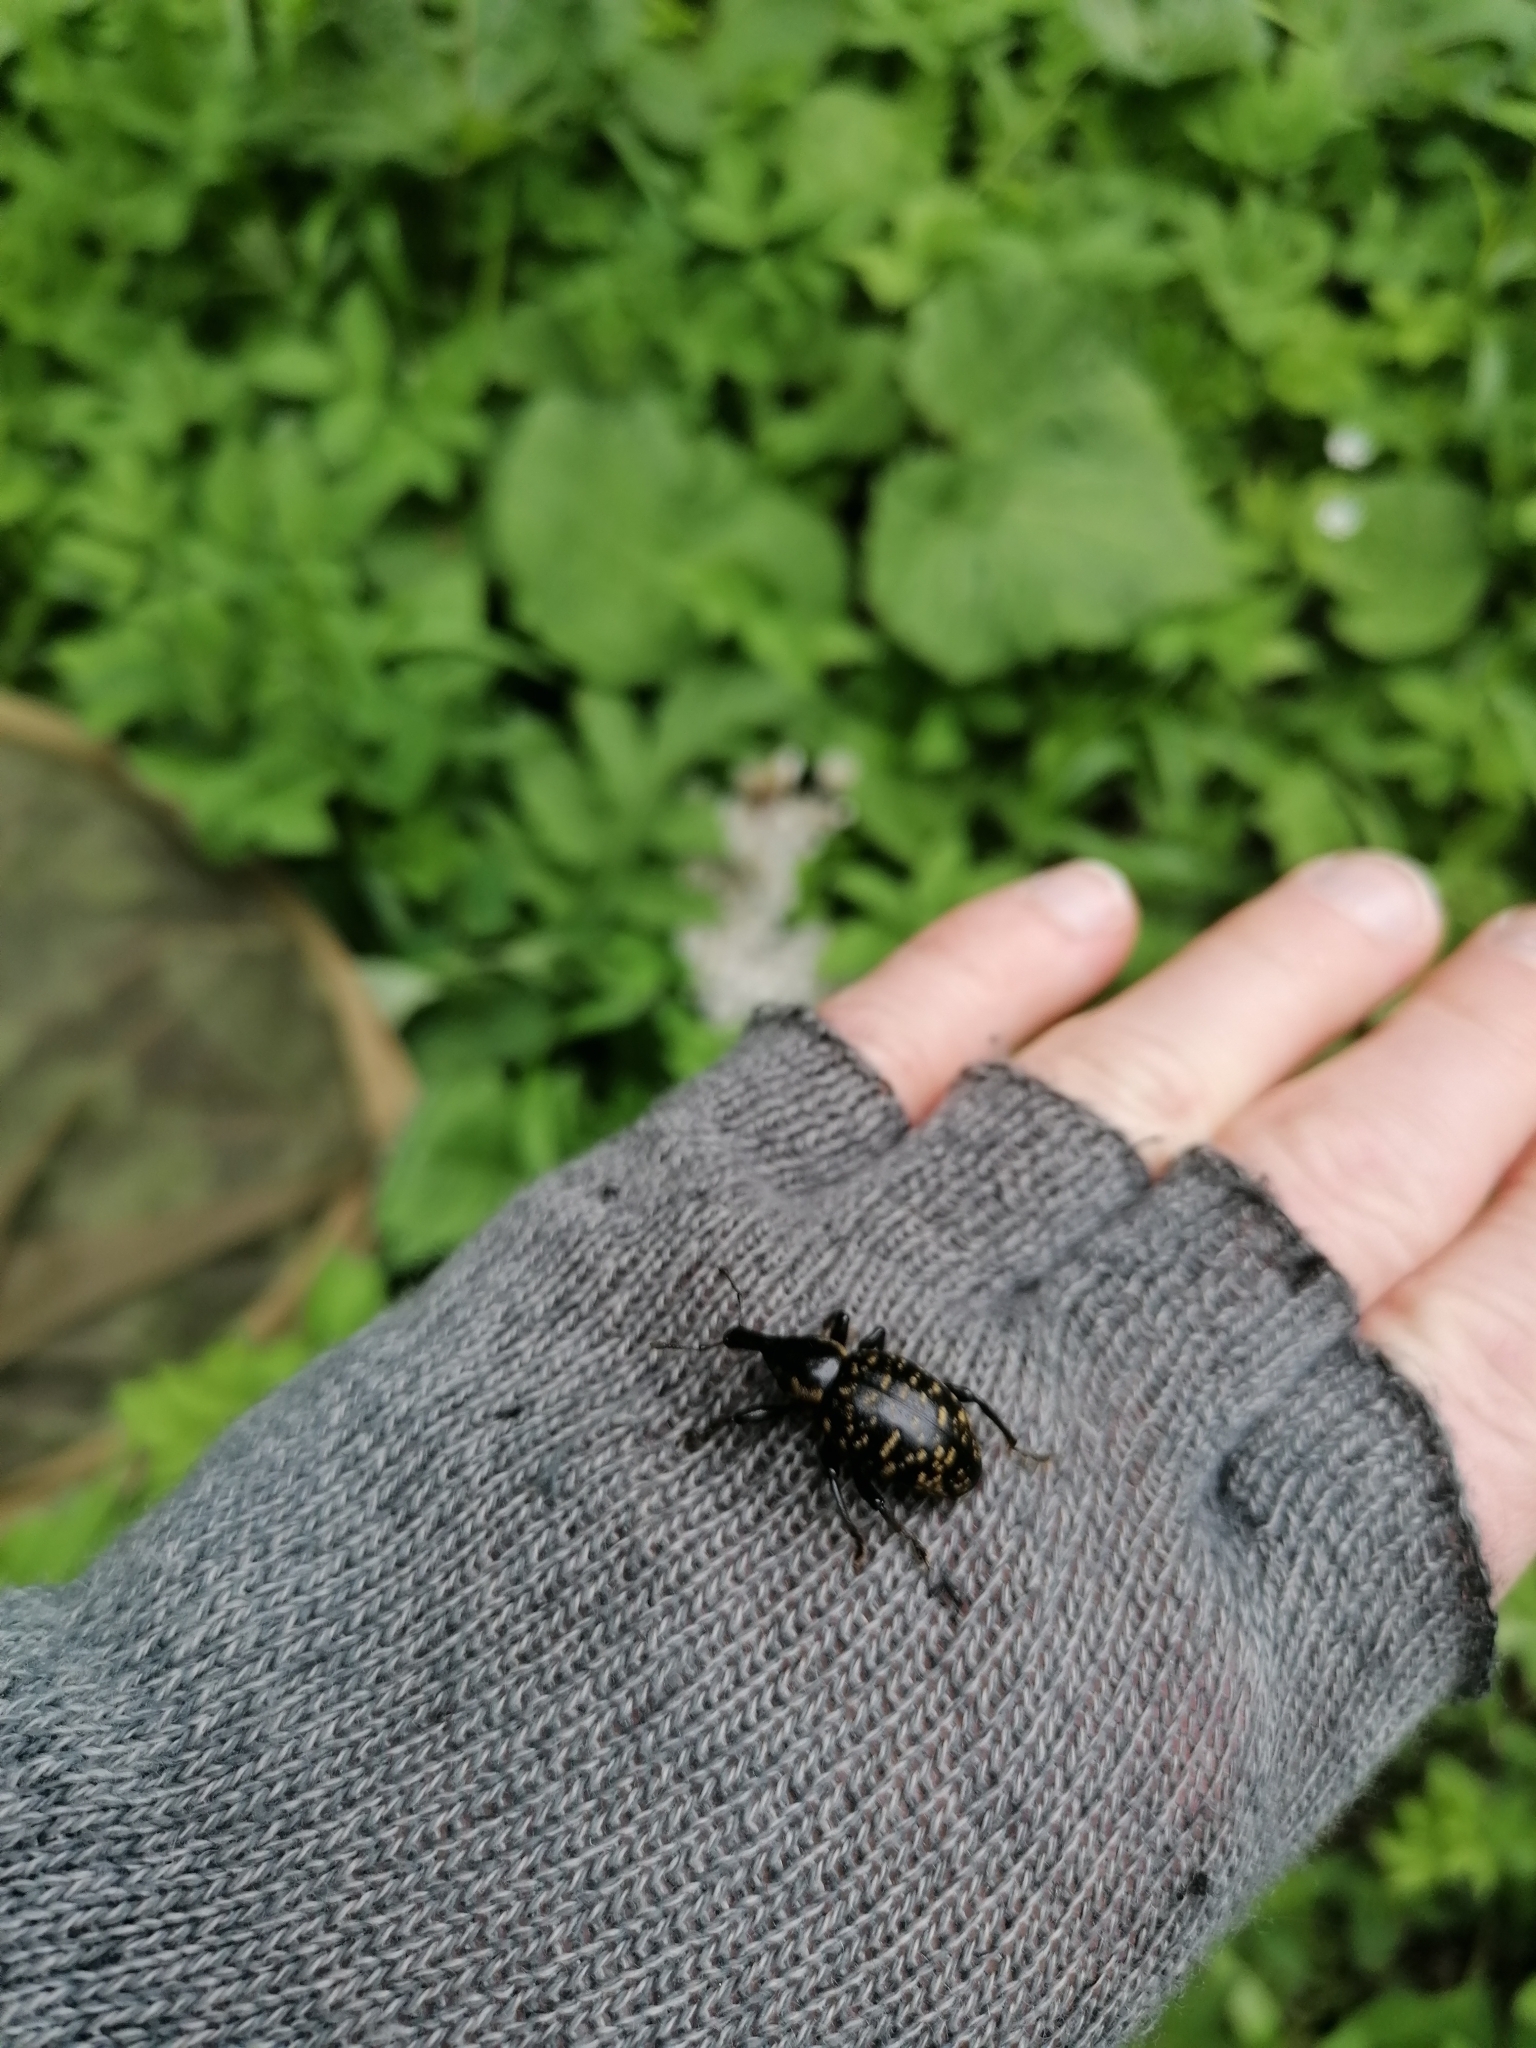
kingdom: Animalia
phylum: Arthropoda
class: Insecta
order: Coleoptera
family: Curculionidae
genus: Liparus
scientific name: Liparus glabrirostris
